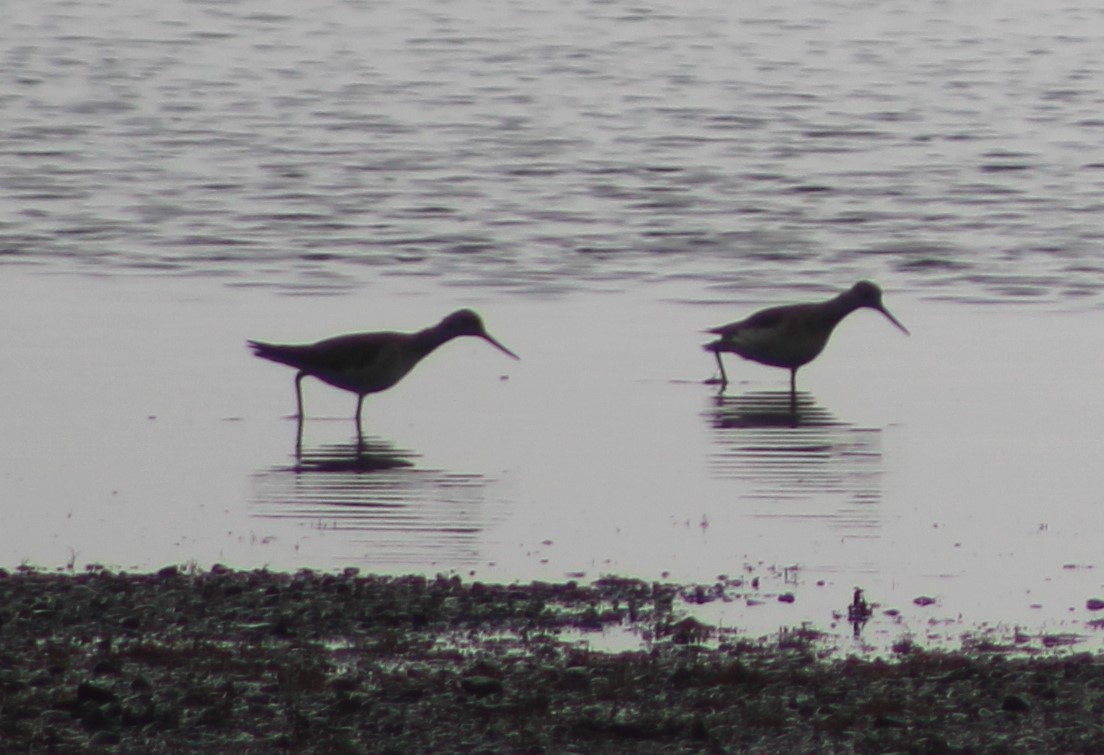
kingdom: Animalia
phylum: Chordata
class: Aves
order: Charadriiformes
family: Scolopacidae
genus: Tringa
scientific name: Tringa melanoleuca
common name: Greater yellowlegs
